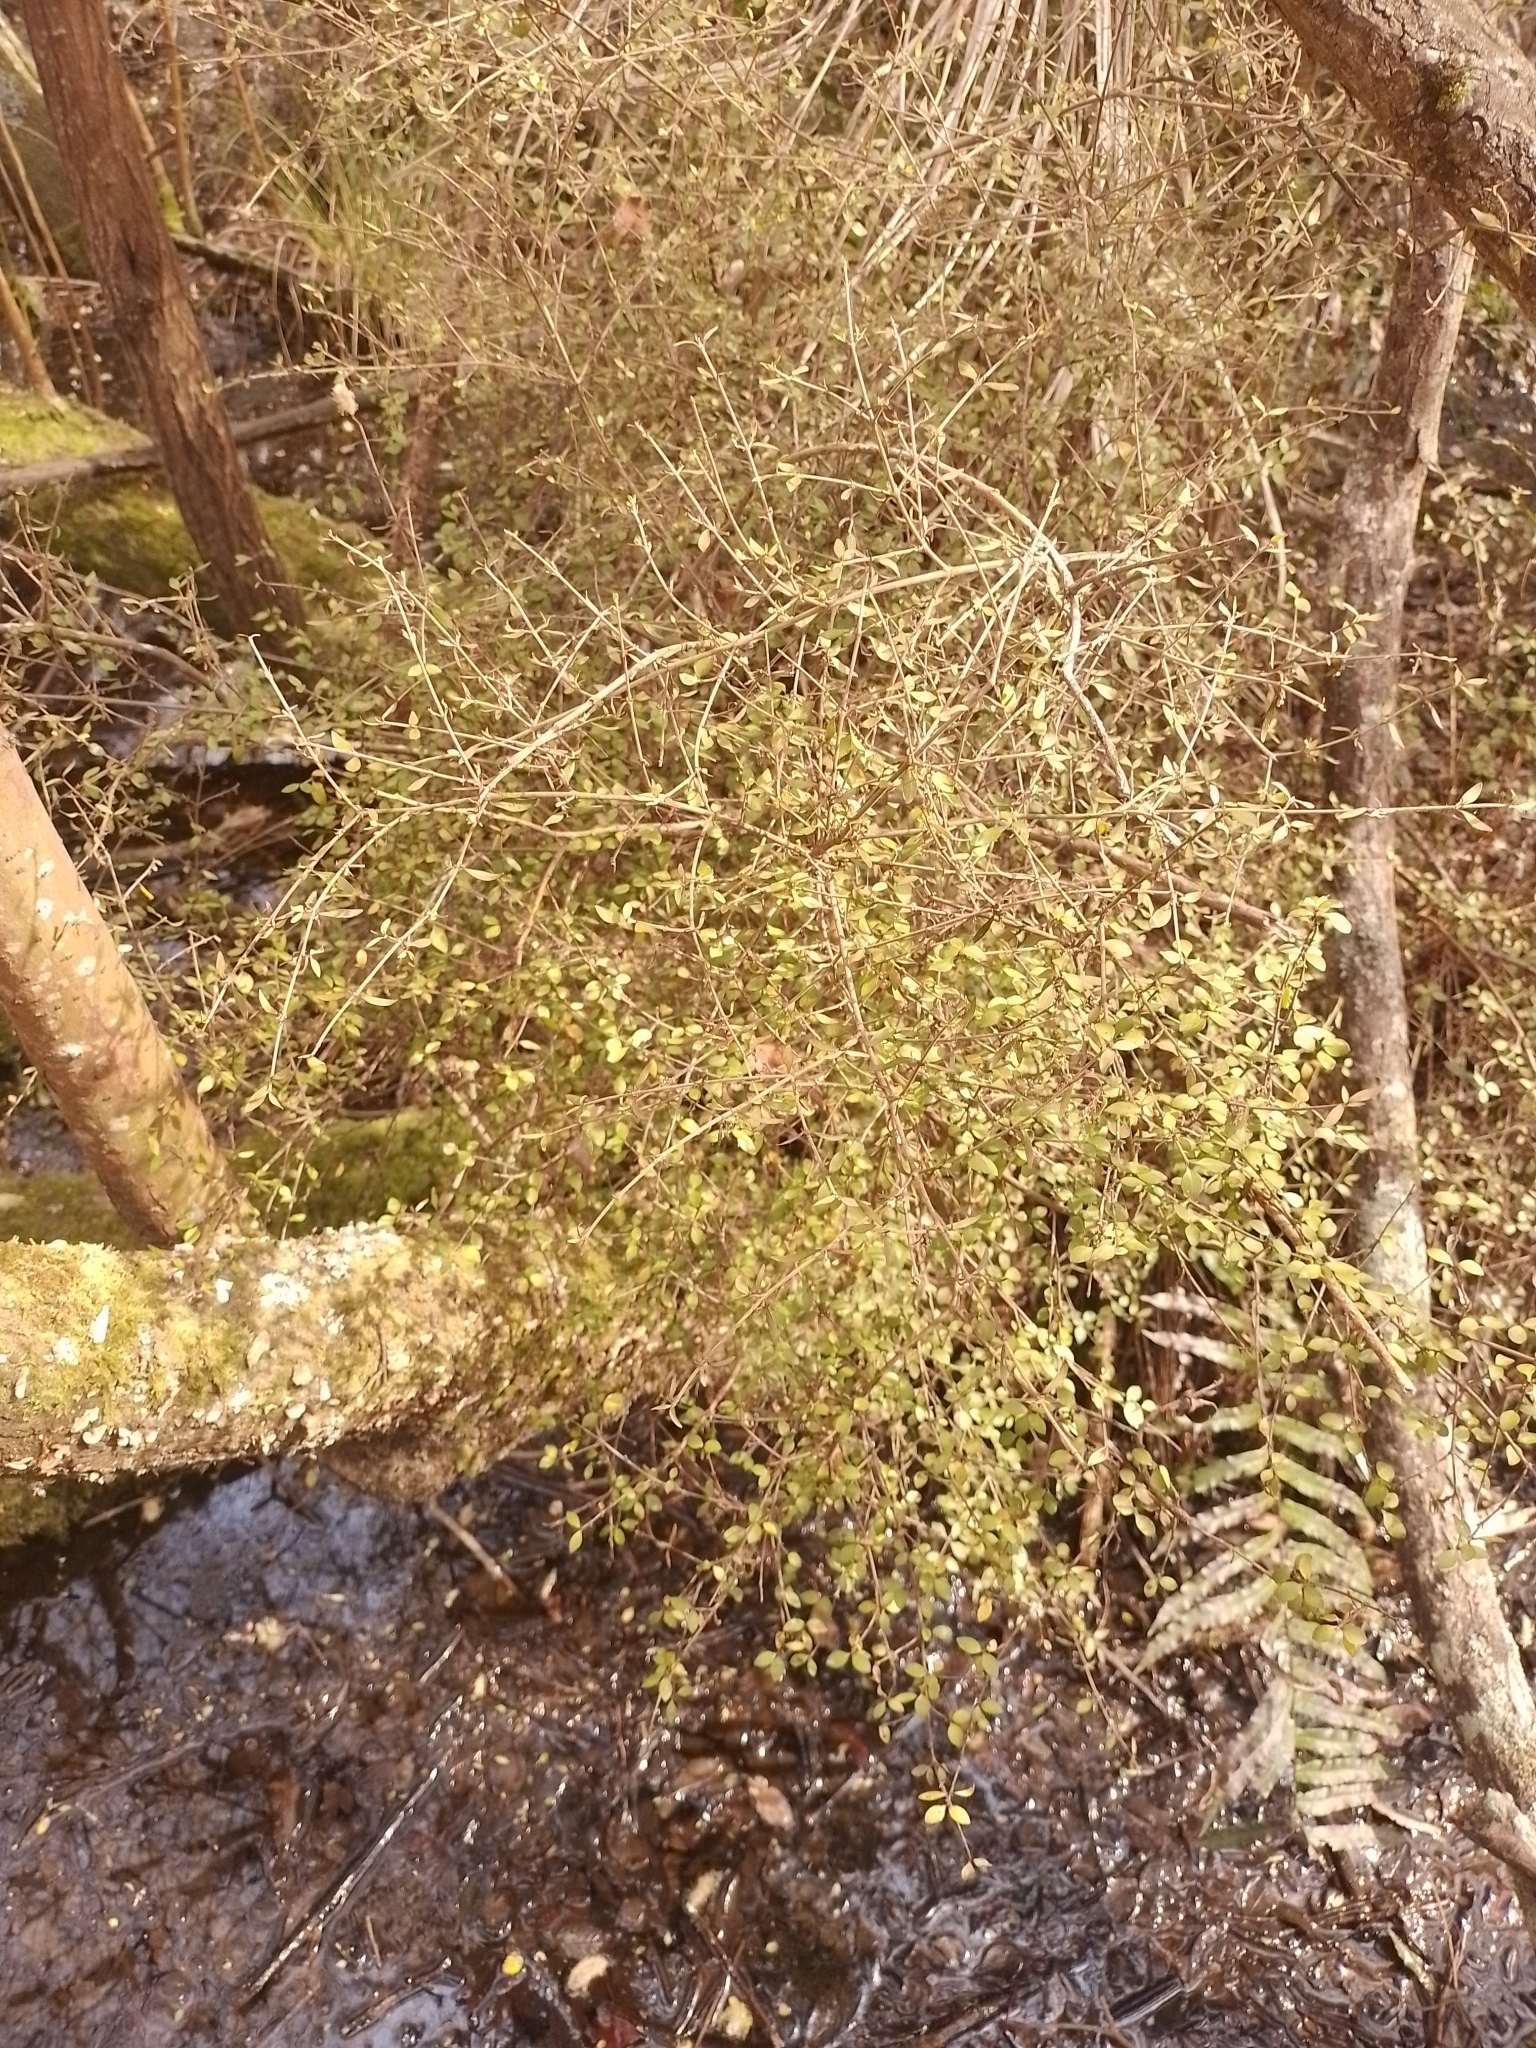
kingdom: Plantae
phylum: Tracheophyta
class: Magnoliopsida
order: Gentianales
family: Rubiaceae
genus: Coprosma
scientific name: Coprosma rhamnoides
